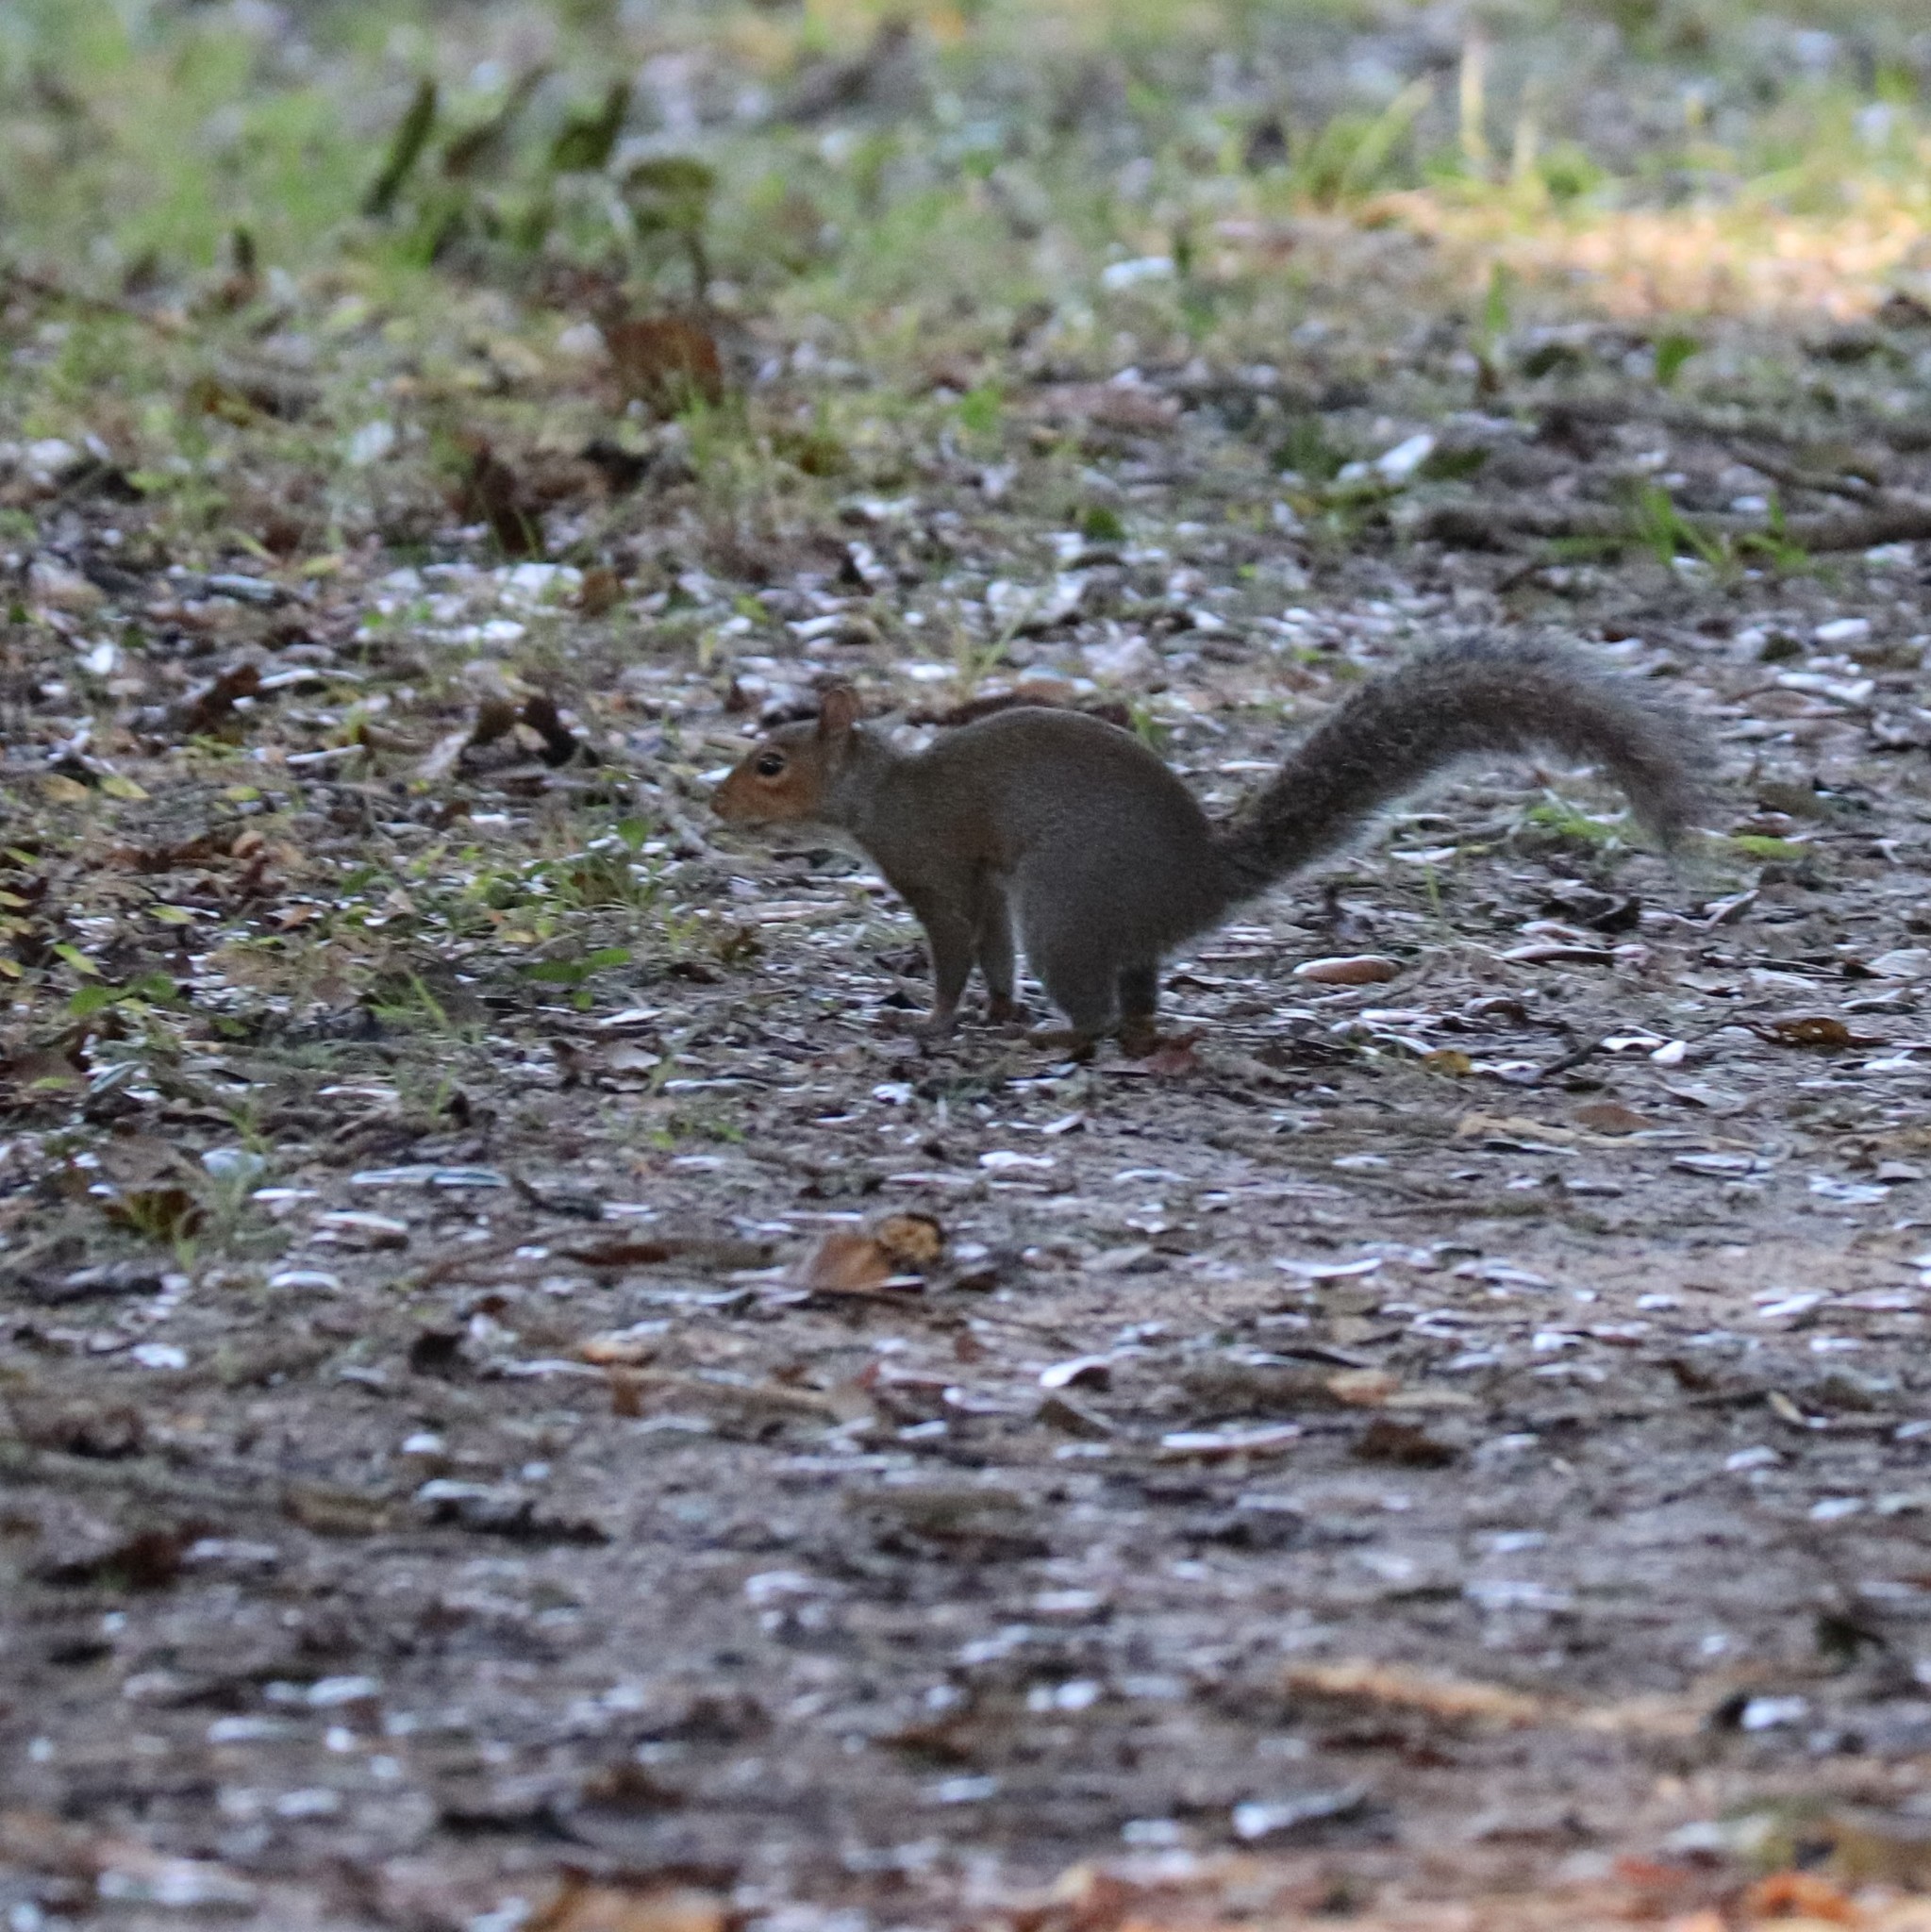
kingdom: Animalia
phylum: Chordata
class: Mammalia
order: Rodentia
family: Sciuridae
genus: Sciurus
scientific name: Sciurus carolinensis
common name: Eastern gray squirrel
